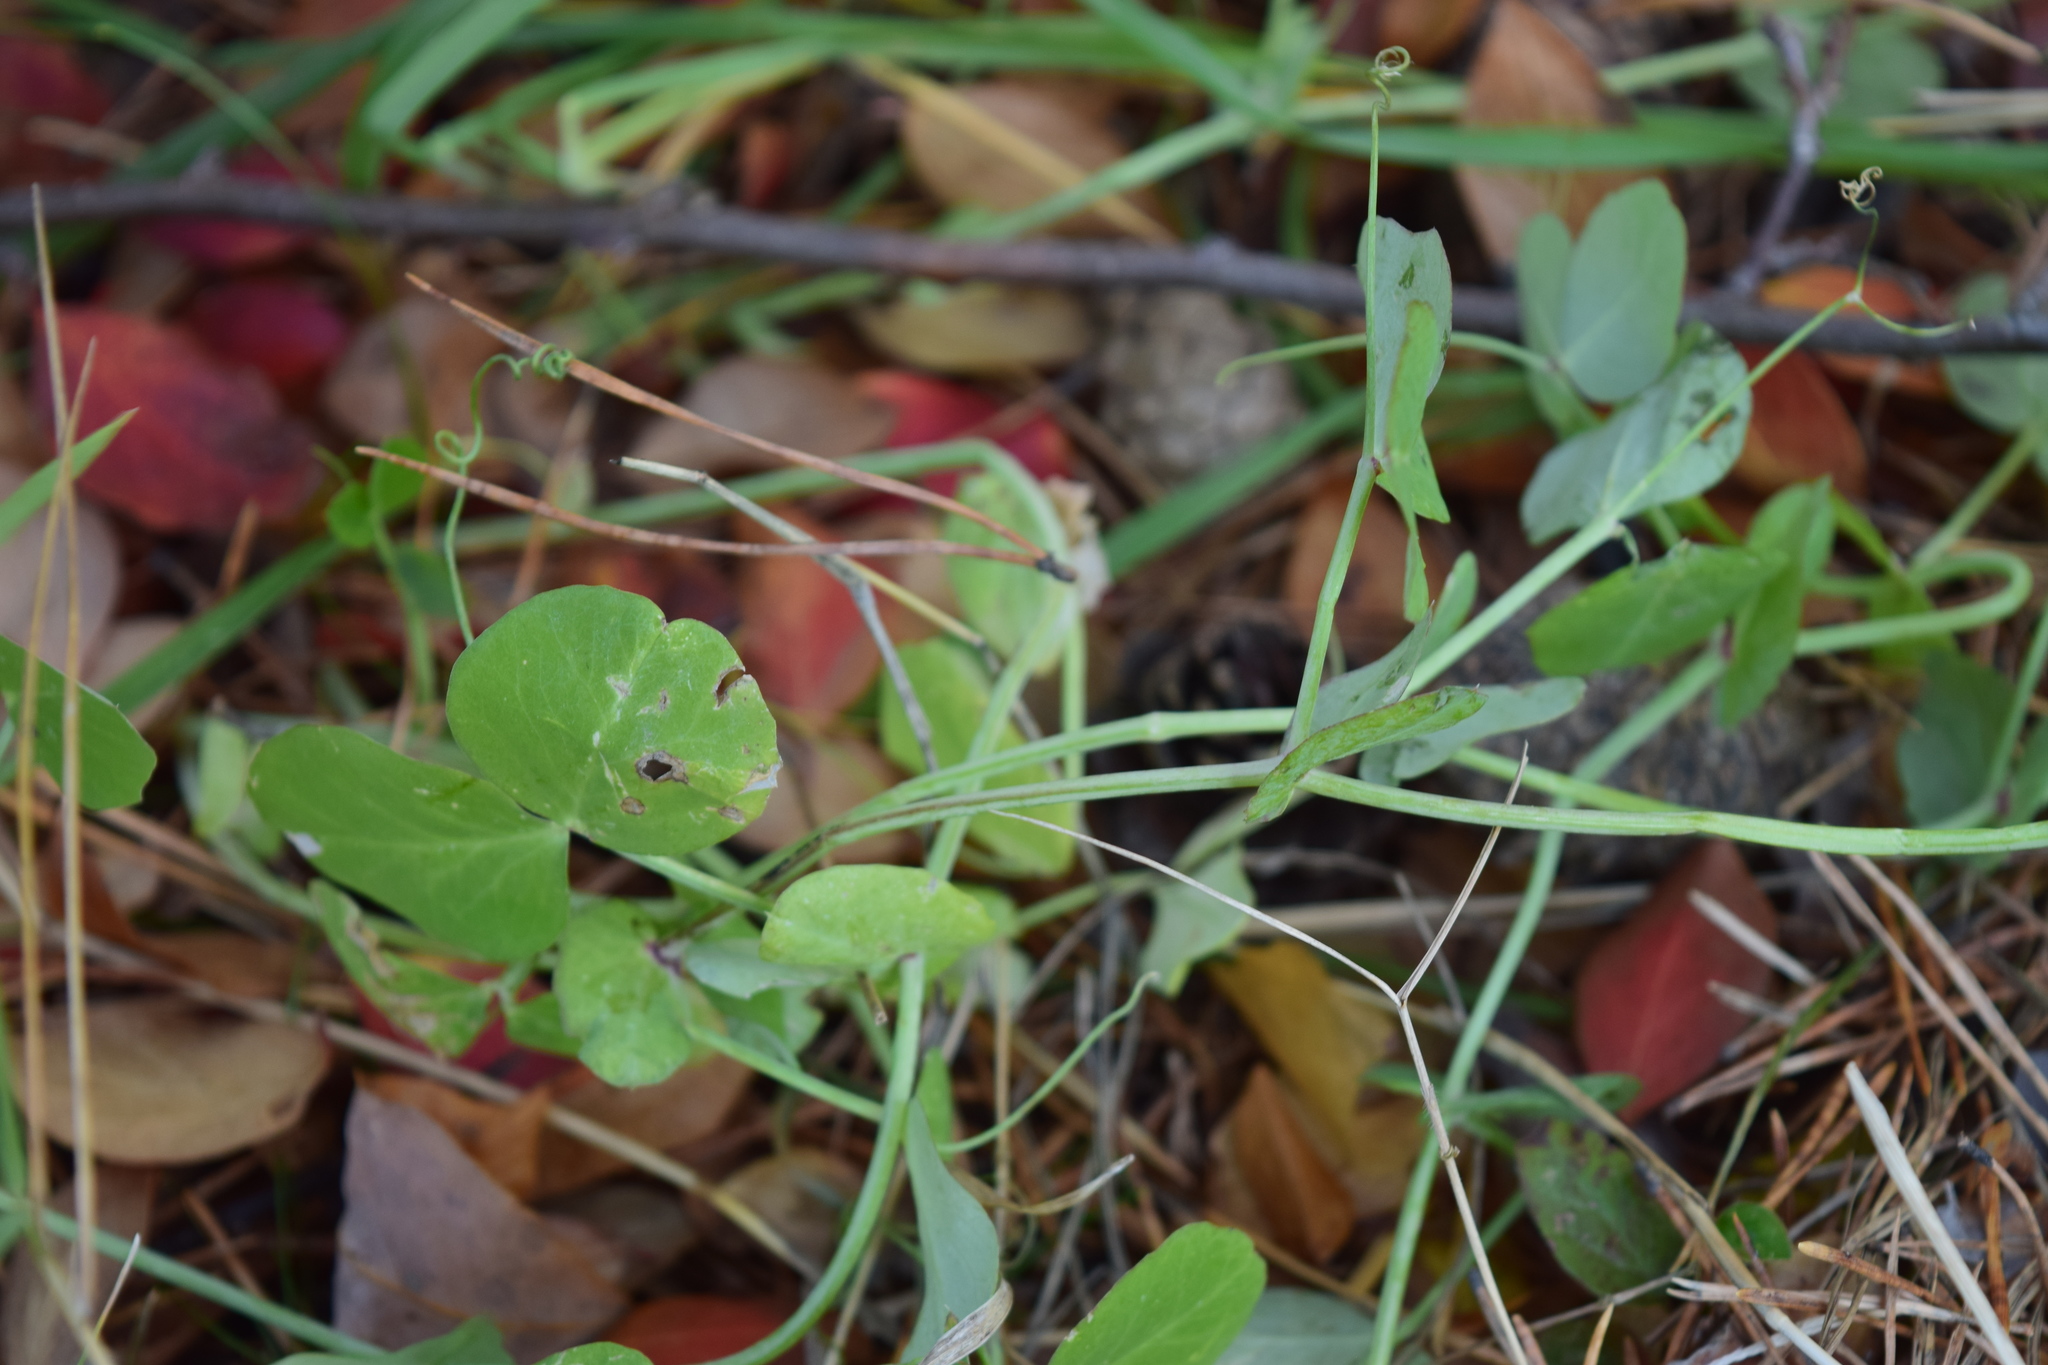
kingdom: Plantae
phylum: Tracheophyta
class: Magnoliopsida
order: Fabales
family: Fabaceae
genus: Lathyrus
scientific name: Lathyrus pisiformis
